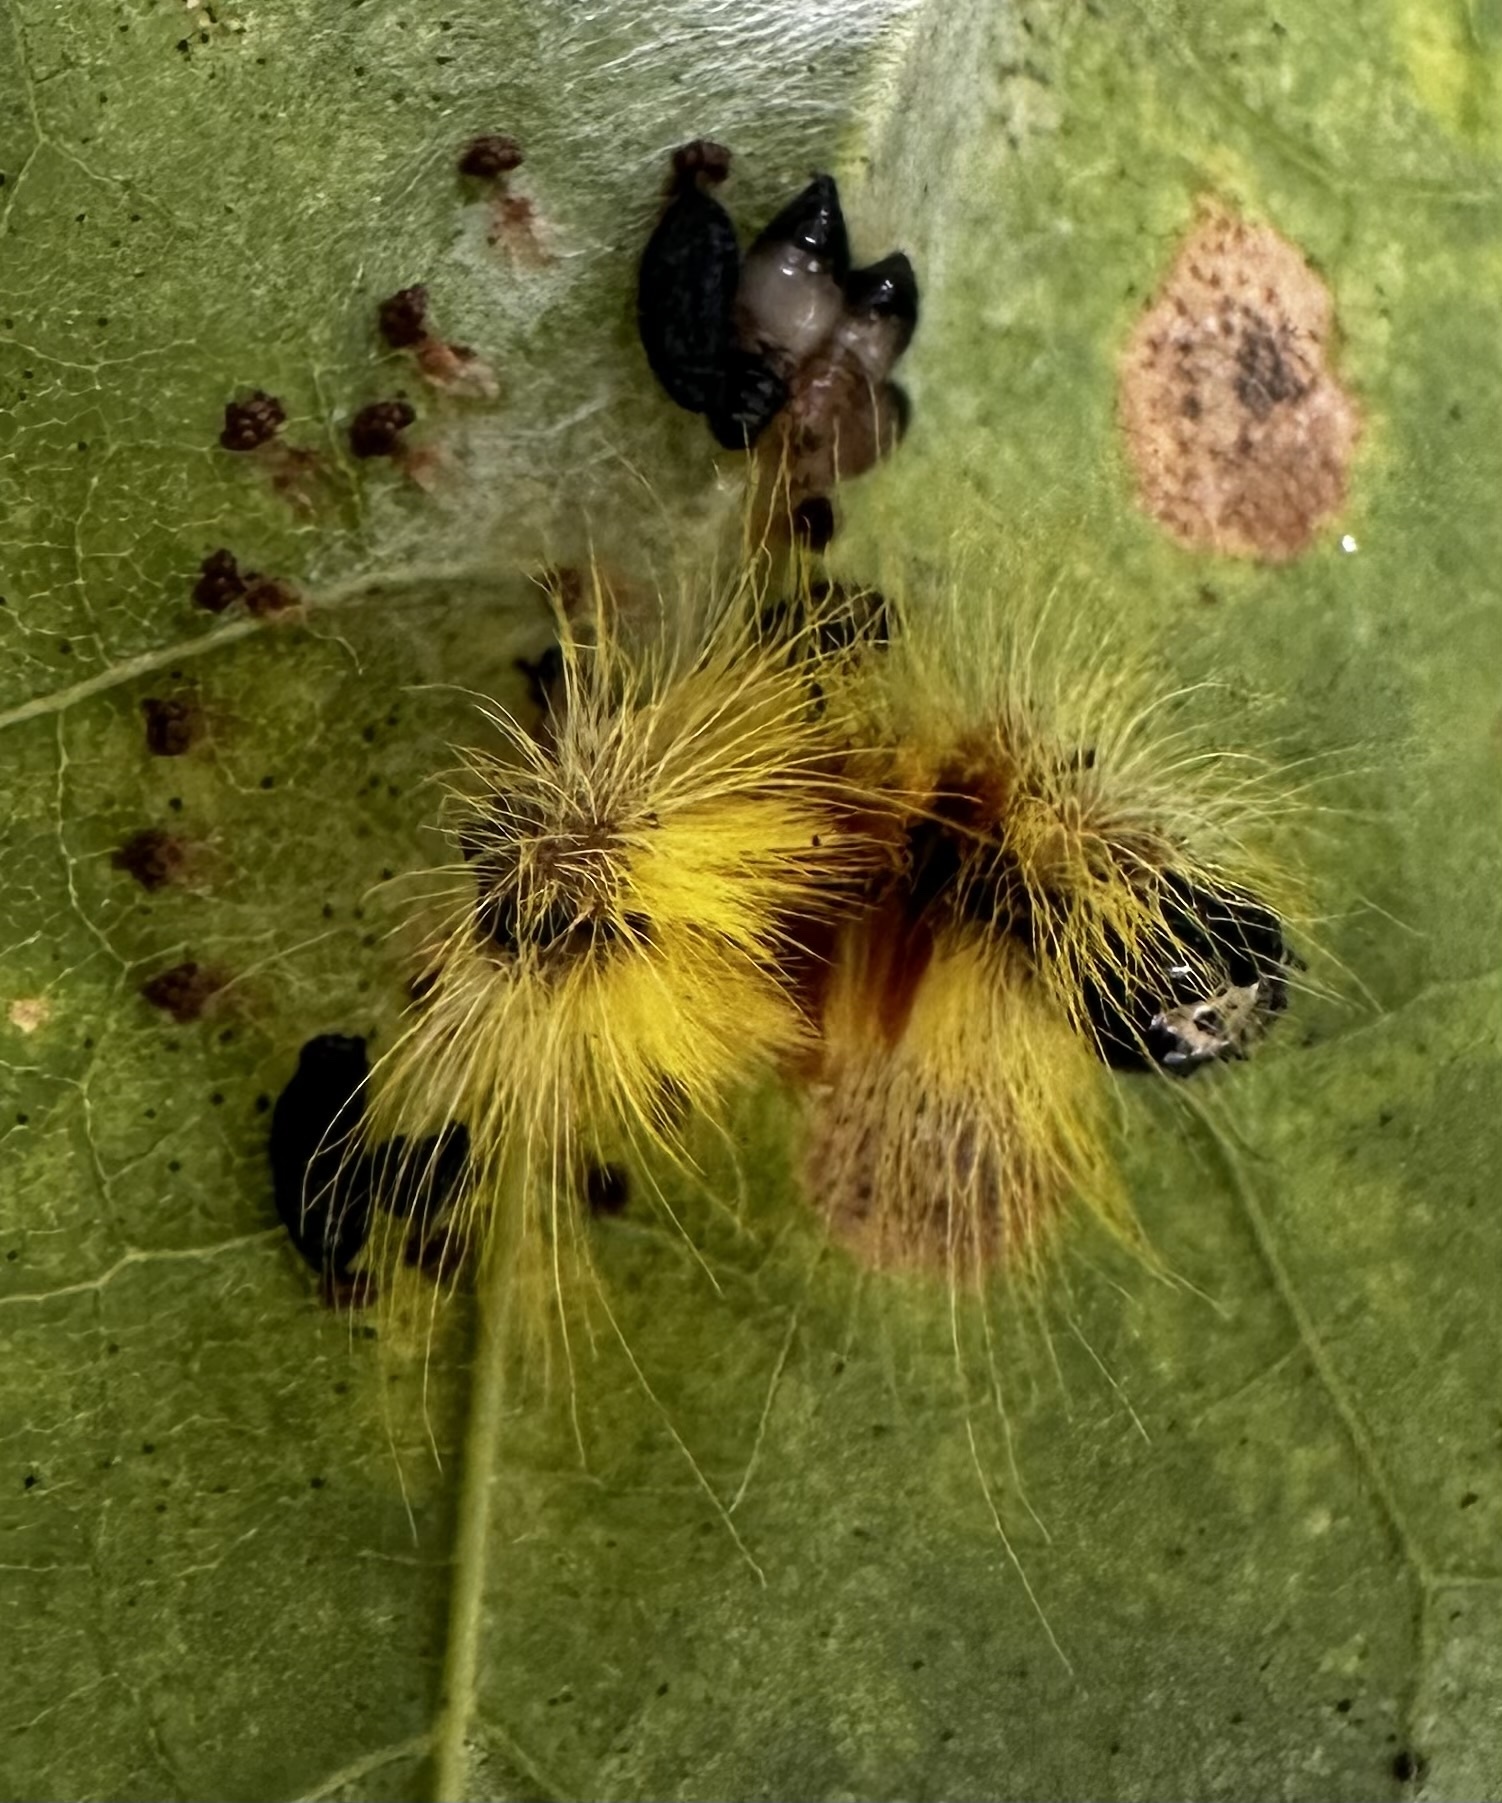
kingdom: Animalia
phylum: Arthropoda
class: Insecta
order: Lepidoptera
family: Noctuidae
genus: Acronicta
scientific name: Acronicta aceris
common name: Sycamore
